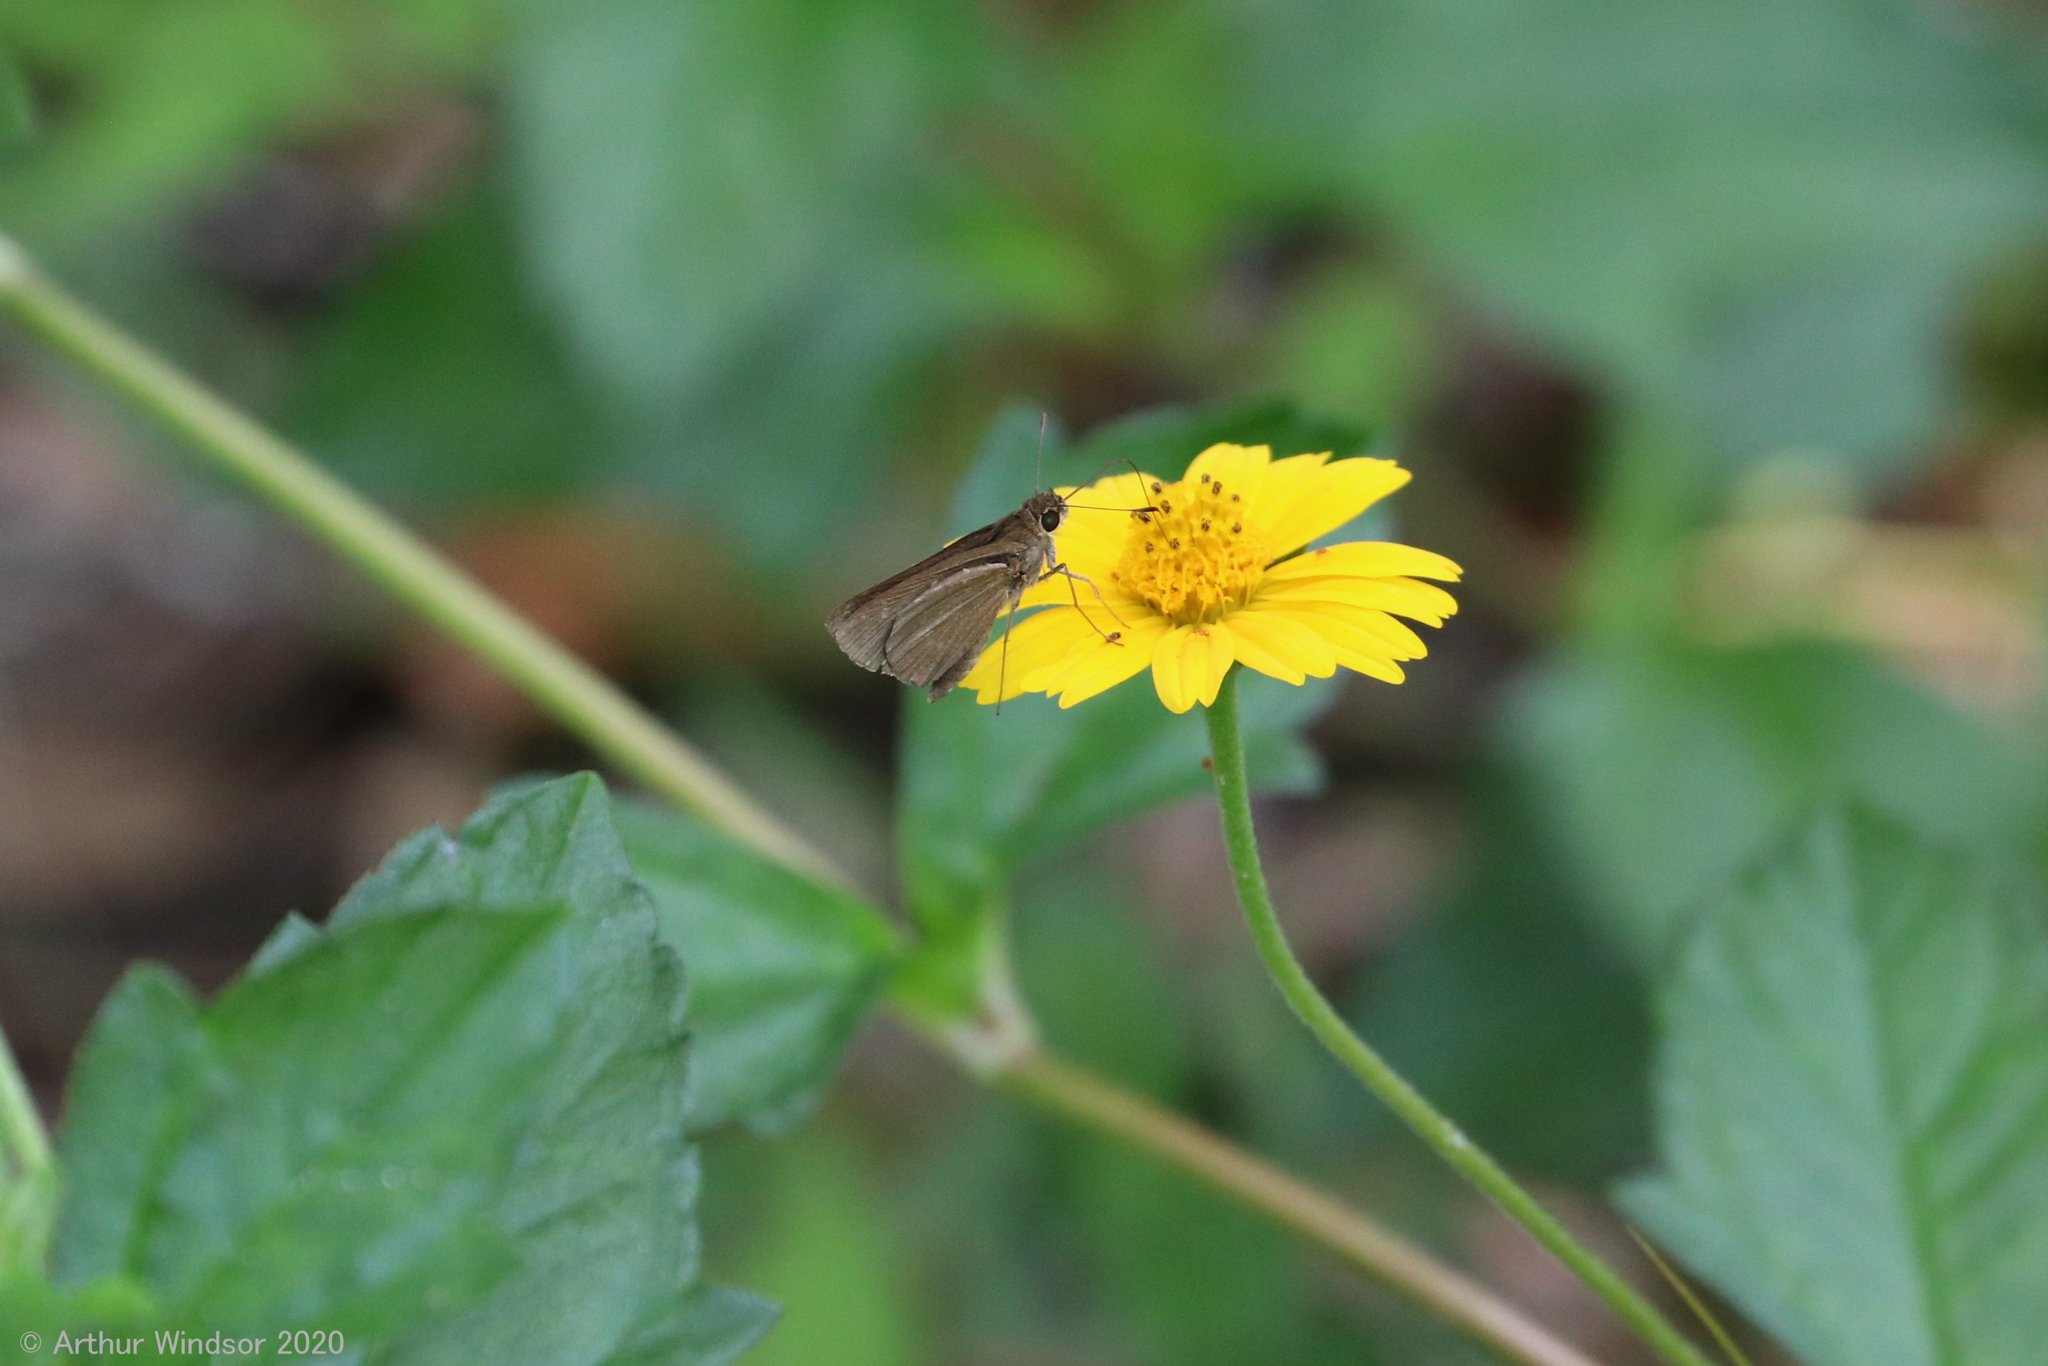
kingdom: Animalia
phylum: Arthropoda
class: Insecta
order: Lepidoptera
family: Hesperiidae
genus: Cymaenes
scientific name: Cymaenes tripunctus
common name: Dingy dotted skipper
